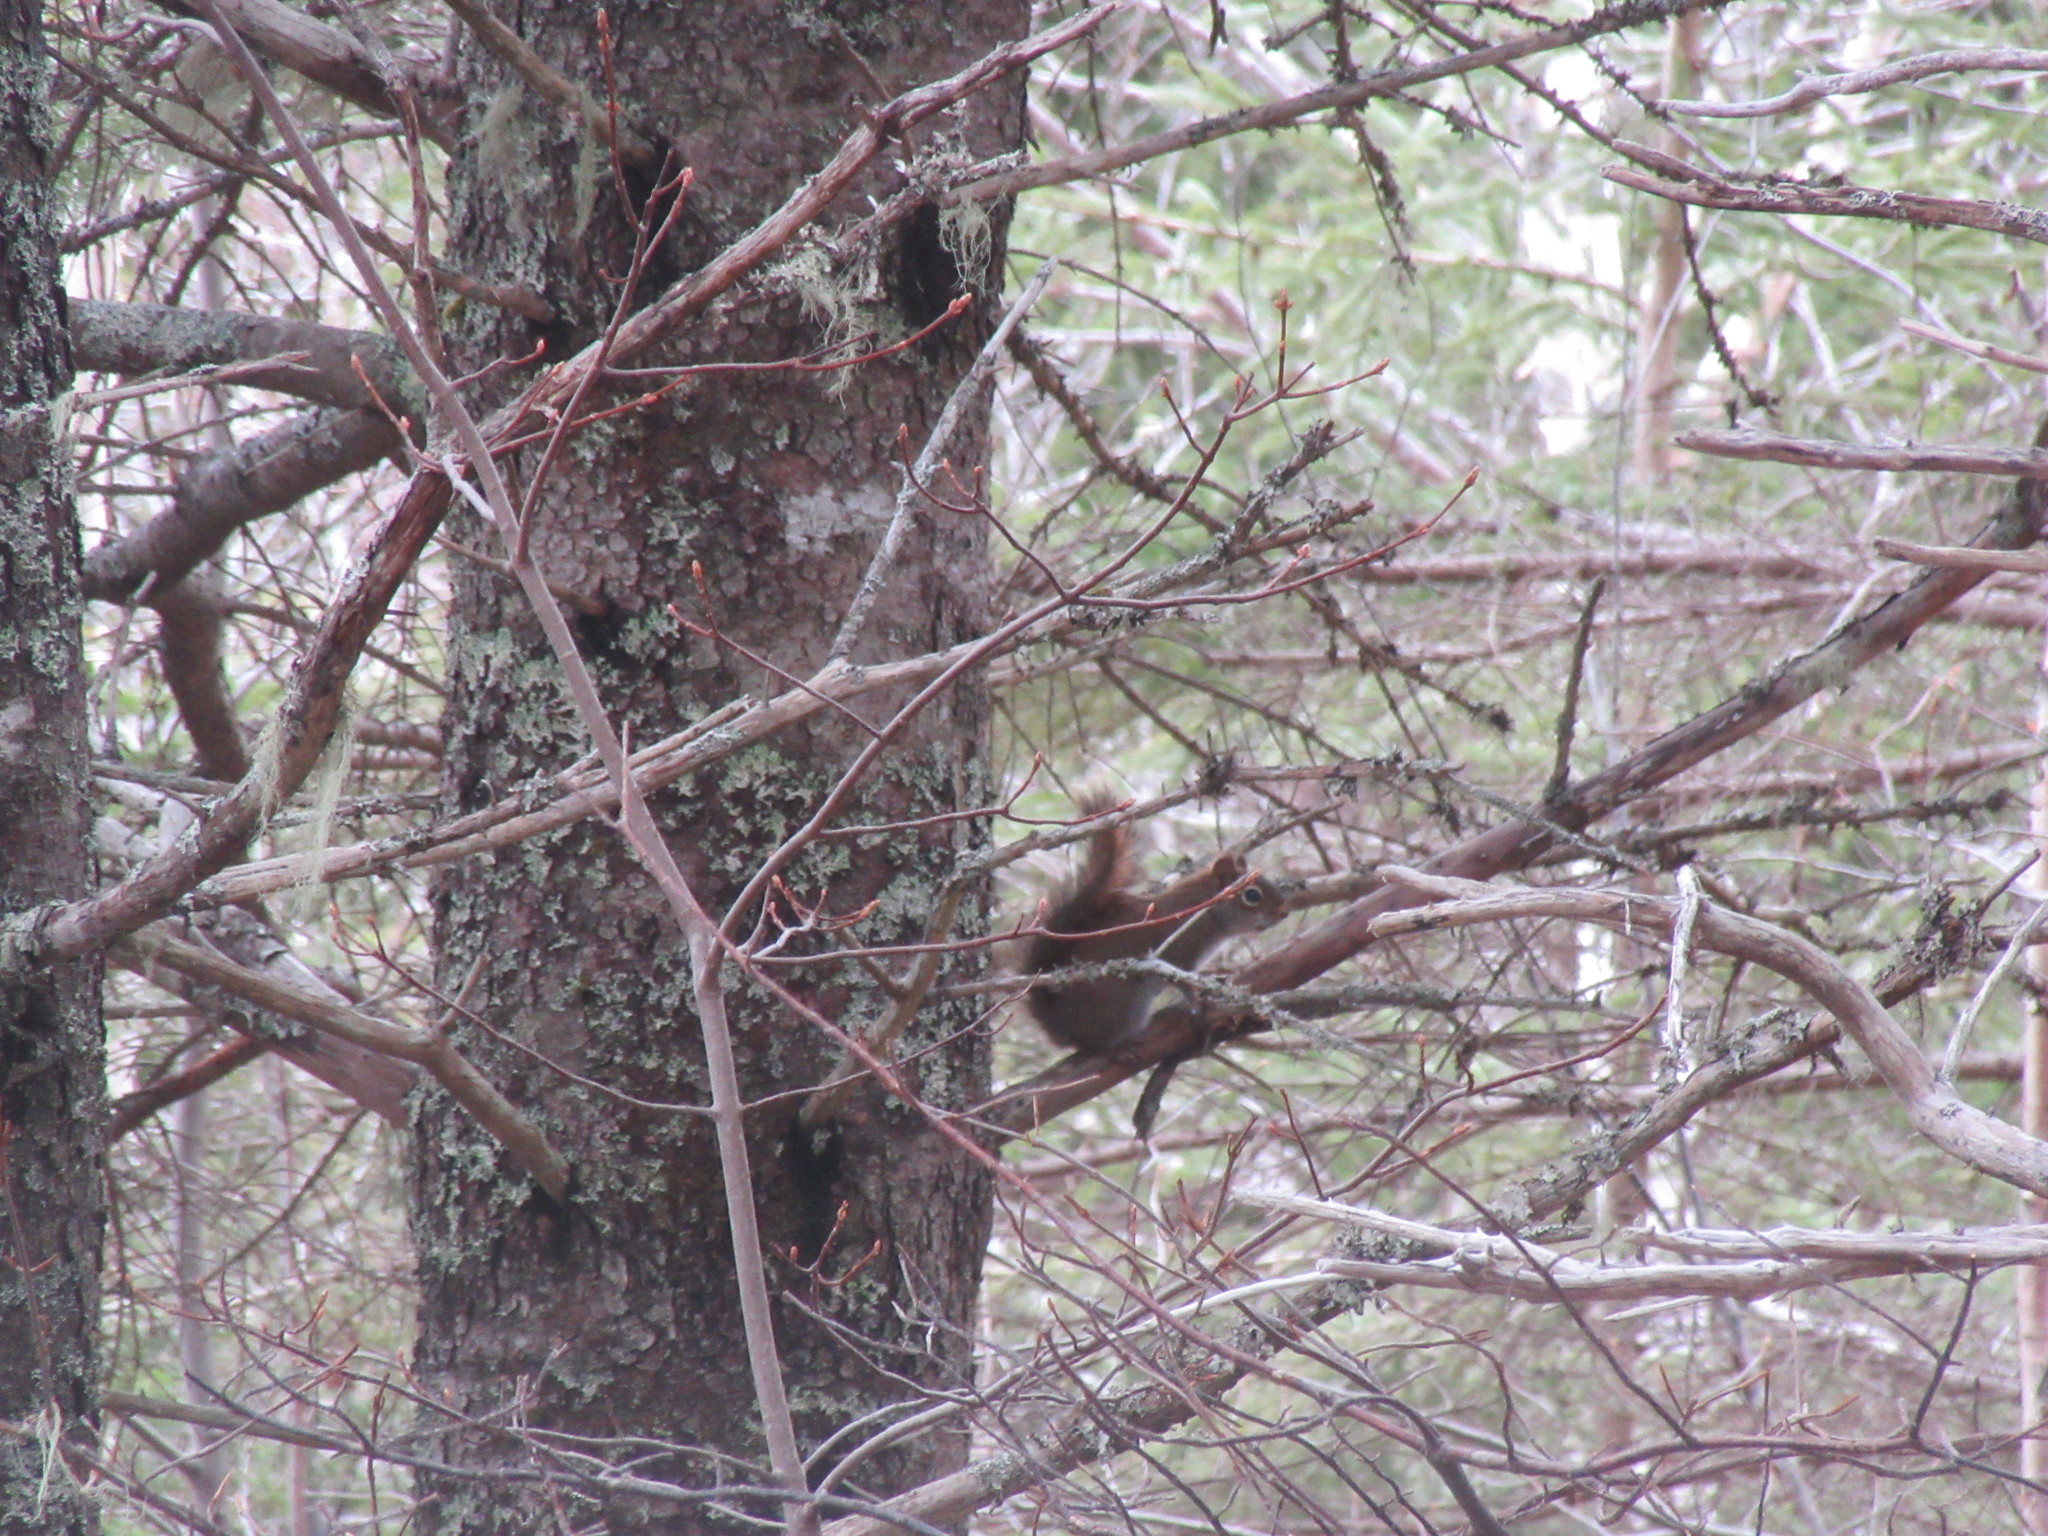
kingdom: Animalia
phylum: Chordata
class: Mammalia
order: Rodentia
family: Sciuridae
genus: Tamiasciurus
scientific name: Tamiasciurus hudsonicus
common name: Red squirrel
